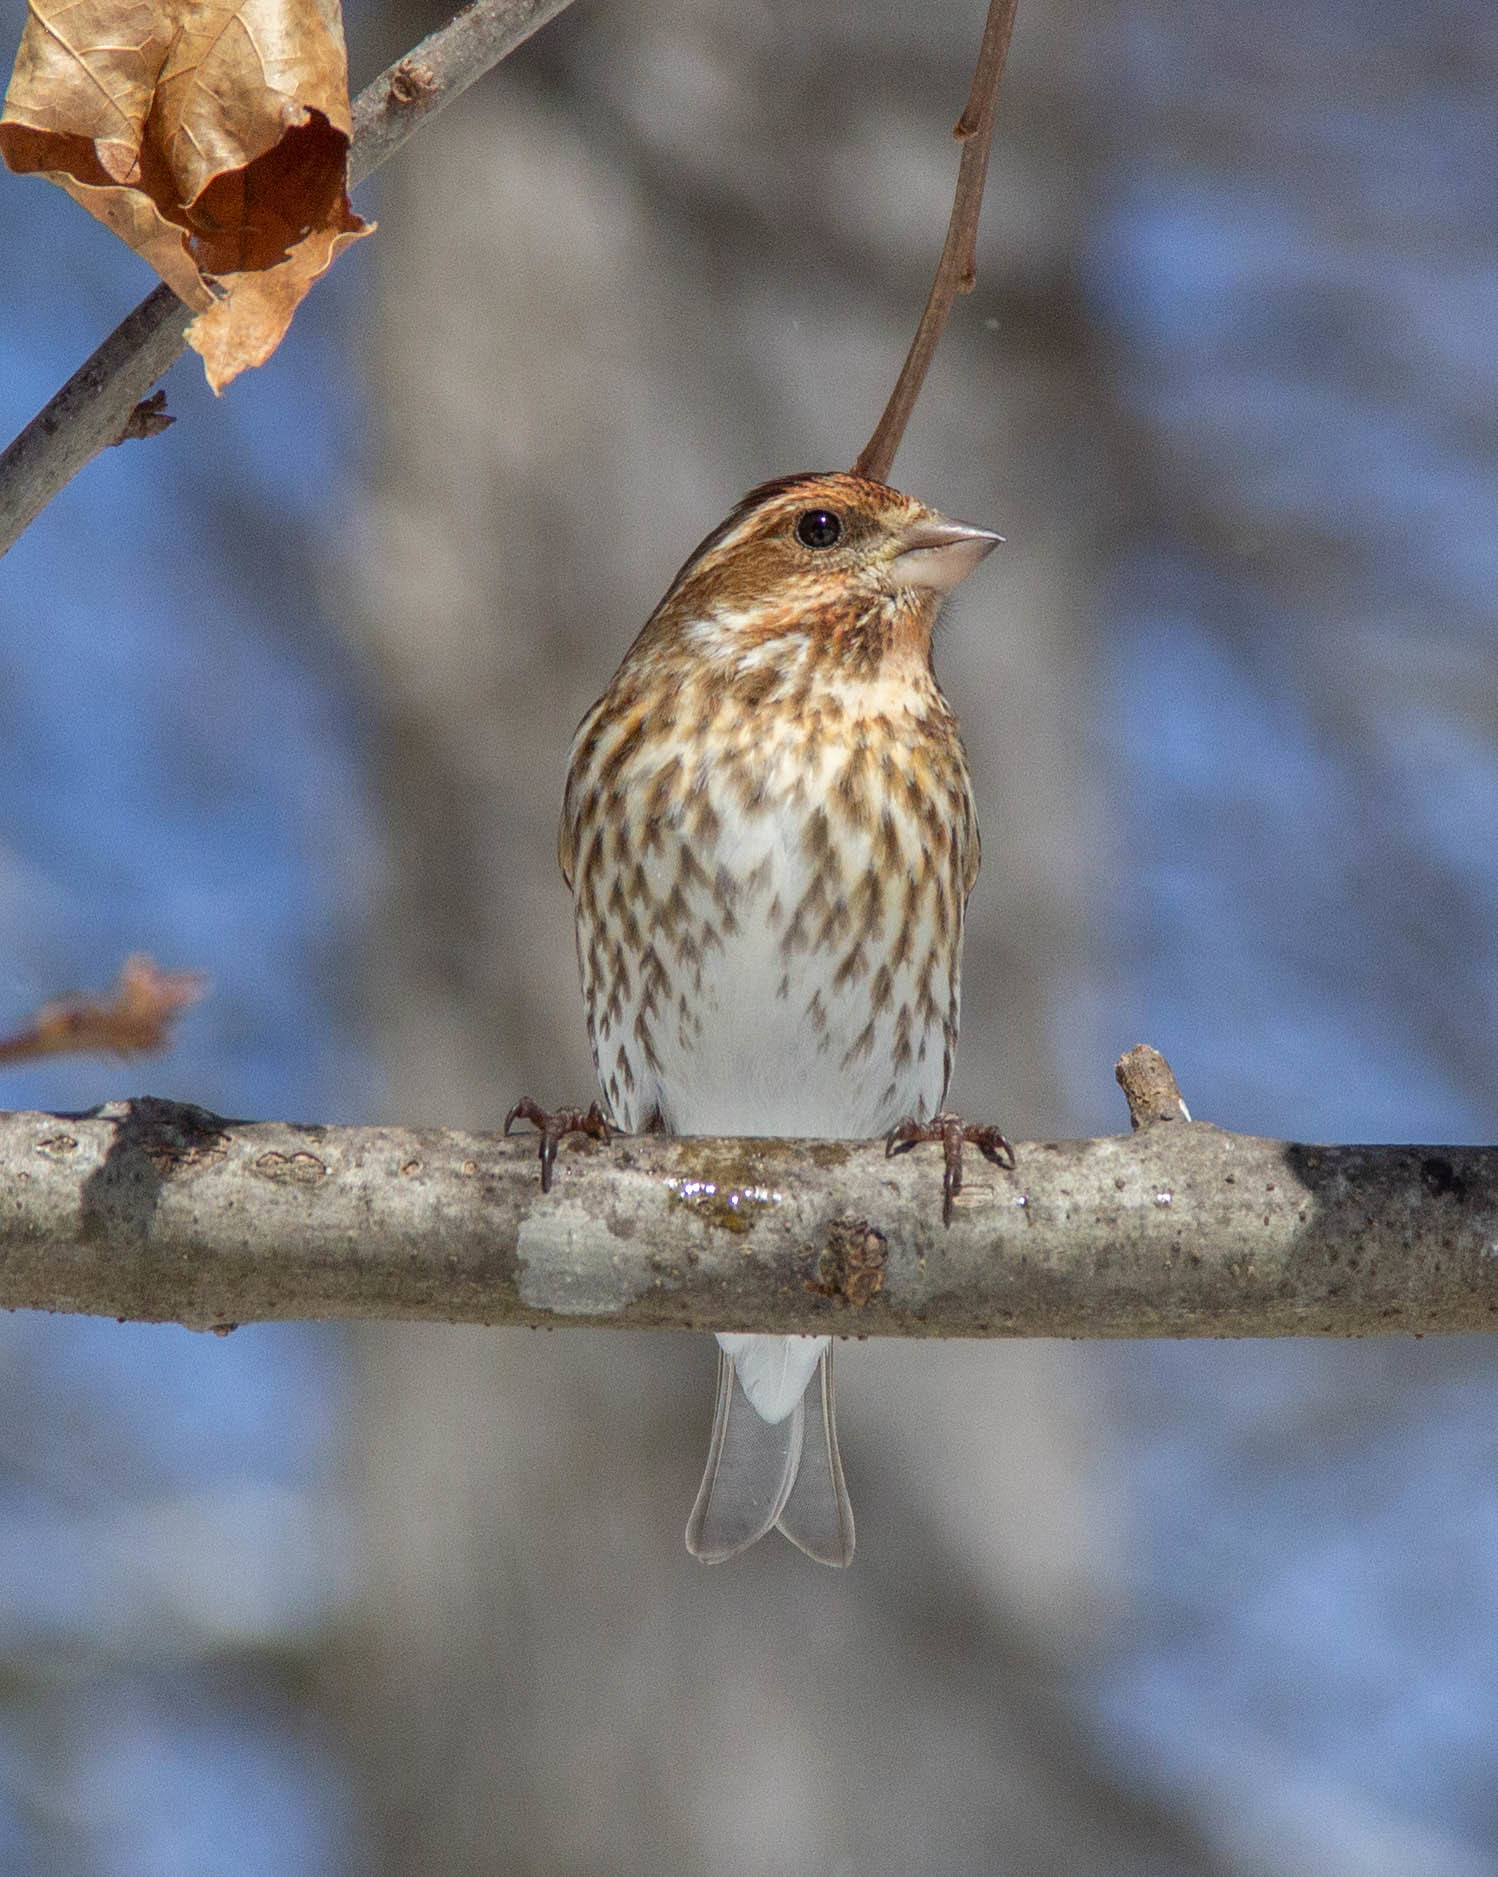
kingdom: Animalia
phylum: Chordata
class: Aves
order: Passeriformes
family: Fringillidae
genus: Haemorhous
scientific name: Haemorhous purpureus
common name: Purple finch
